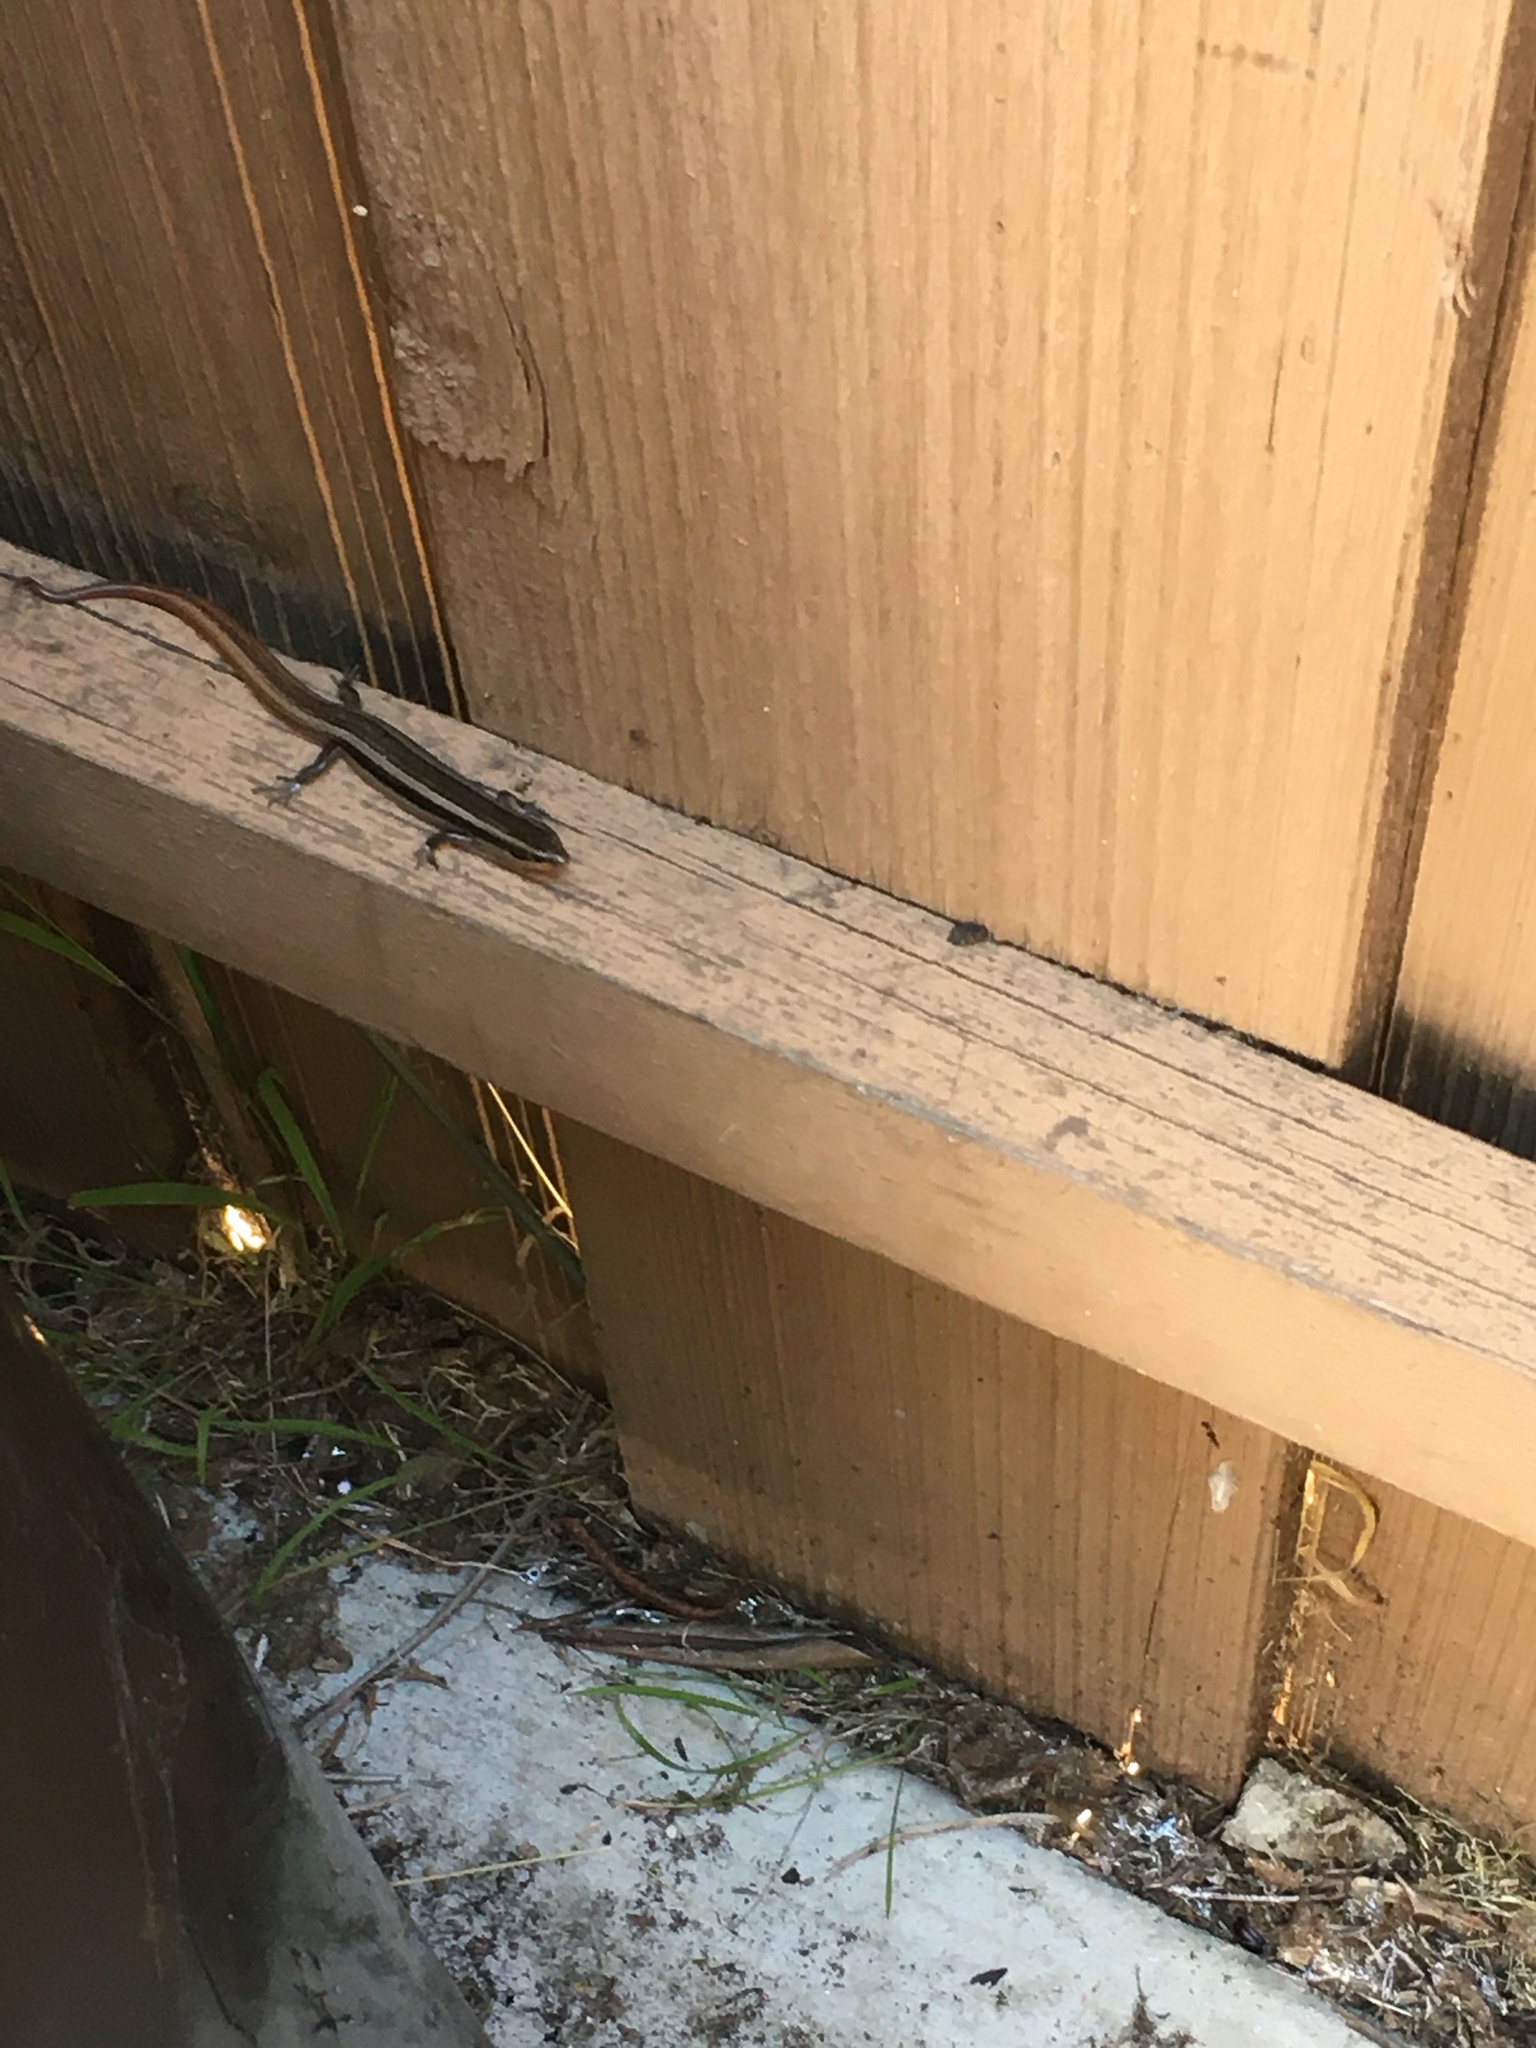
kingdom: Animalia
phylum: Chordata
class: Squamata
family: Scincidae
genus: Plestiodon
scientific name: Plestiodon skiltonianus
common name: Coronado island skink [interparietalis]
